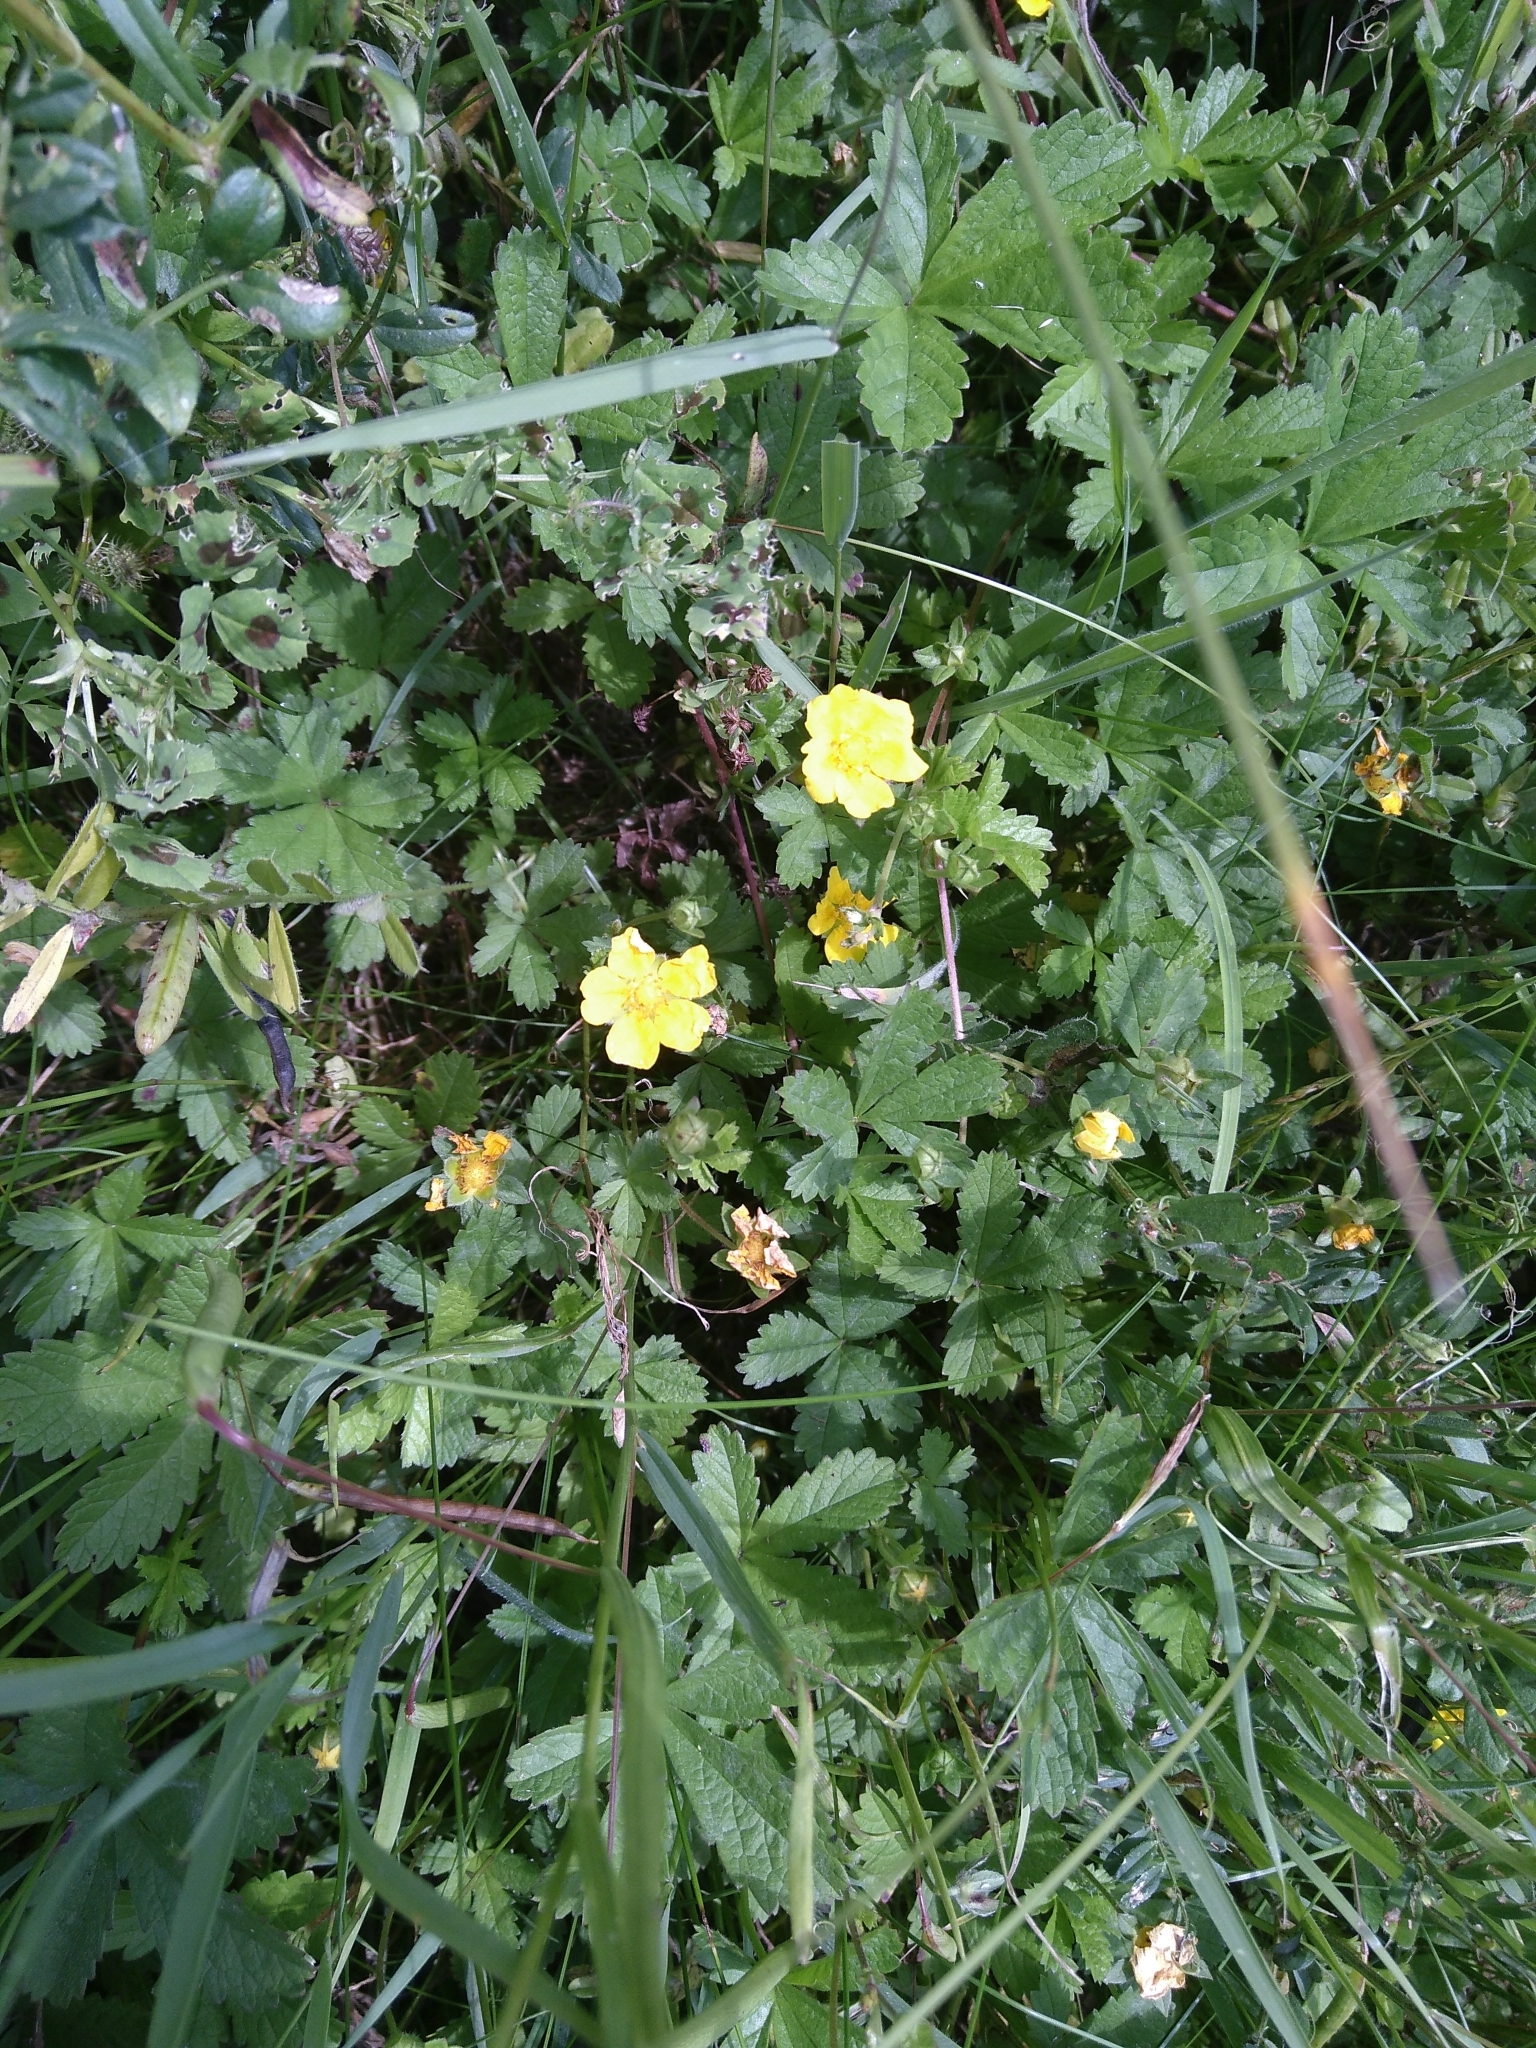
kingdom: Plantae
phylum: Tracheophyta
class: Magnoliopsida
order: Rosales
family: Rosaceae
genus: Potentilla
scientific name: Potentilla reptans
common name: Creeping cinquefoil
